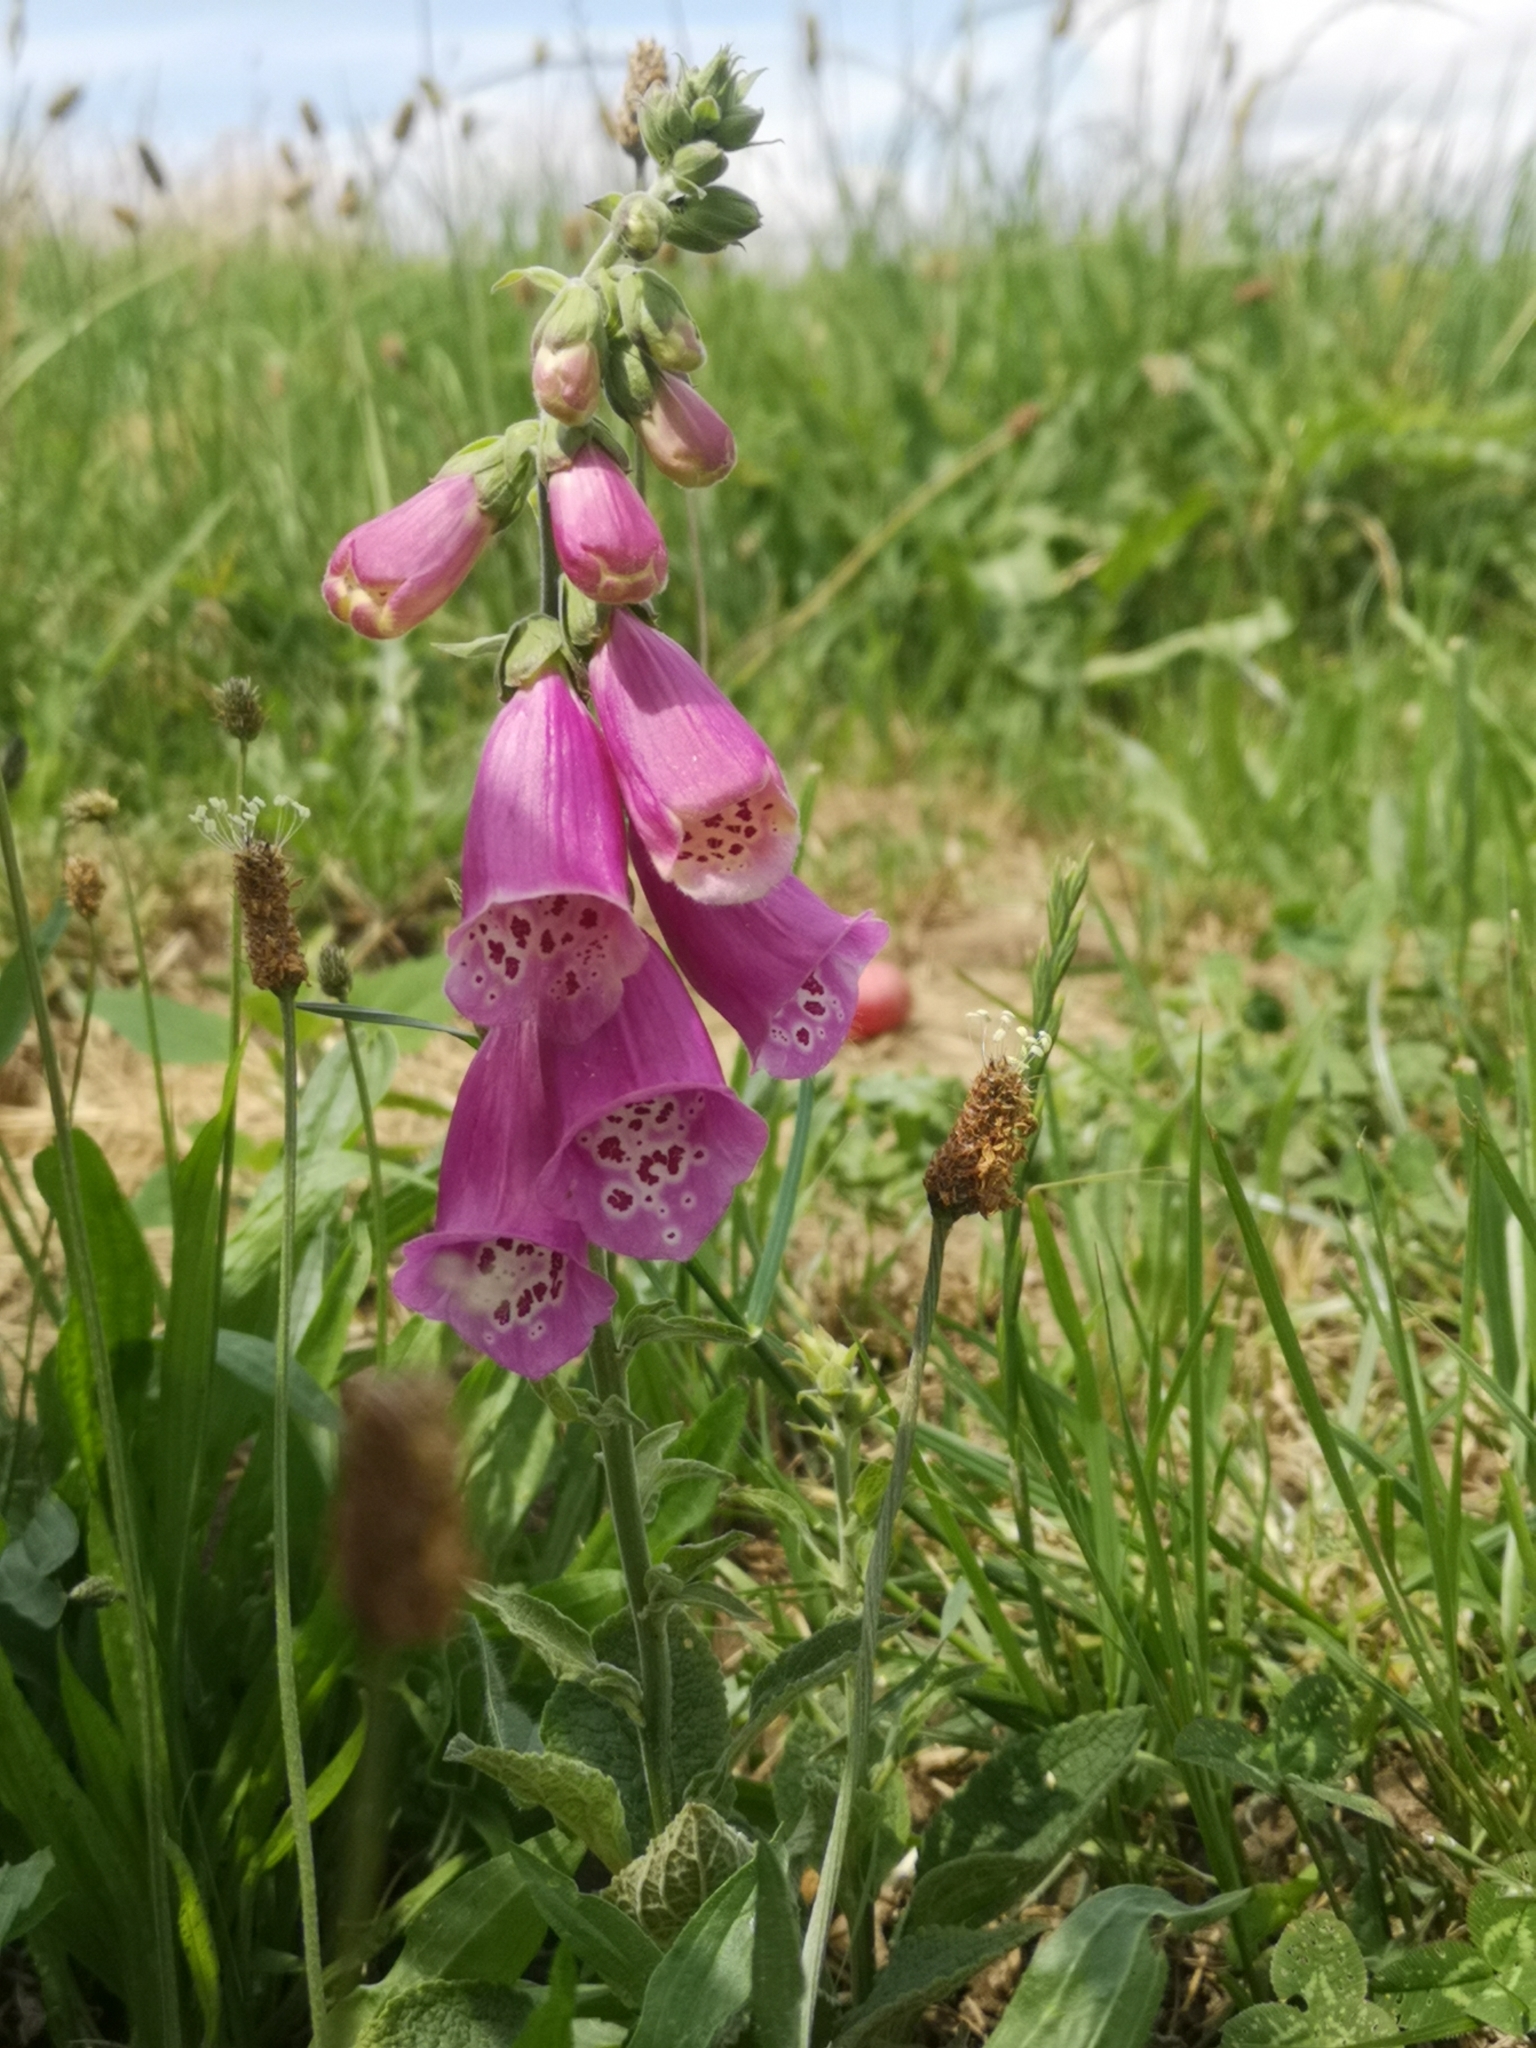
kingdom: Plantae
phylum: Tracheophyta
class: Magnoliopsida
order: Lamiales
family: Plantaginaceae
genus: Digitalis
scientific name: Digitalis purpurea
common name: Foxglove
